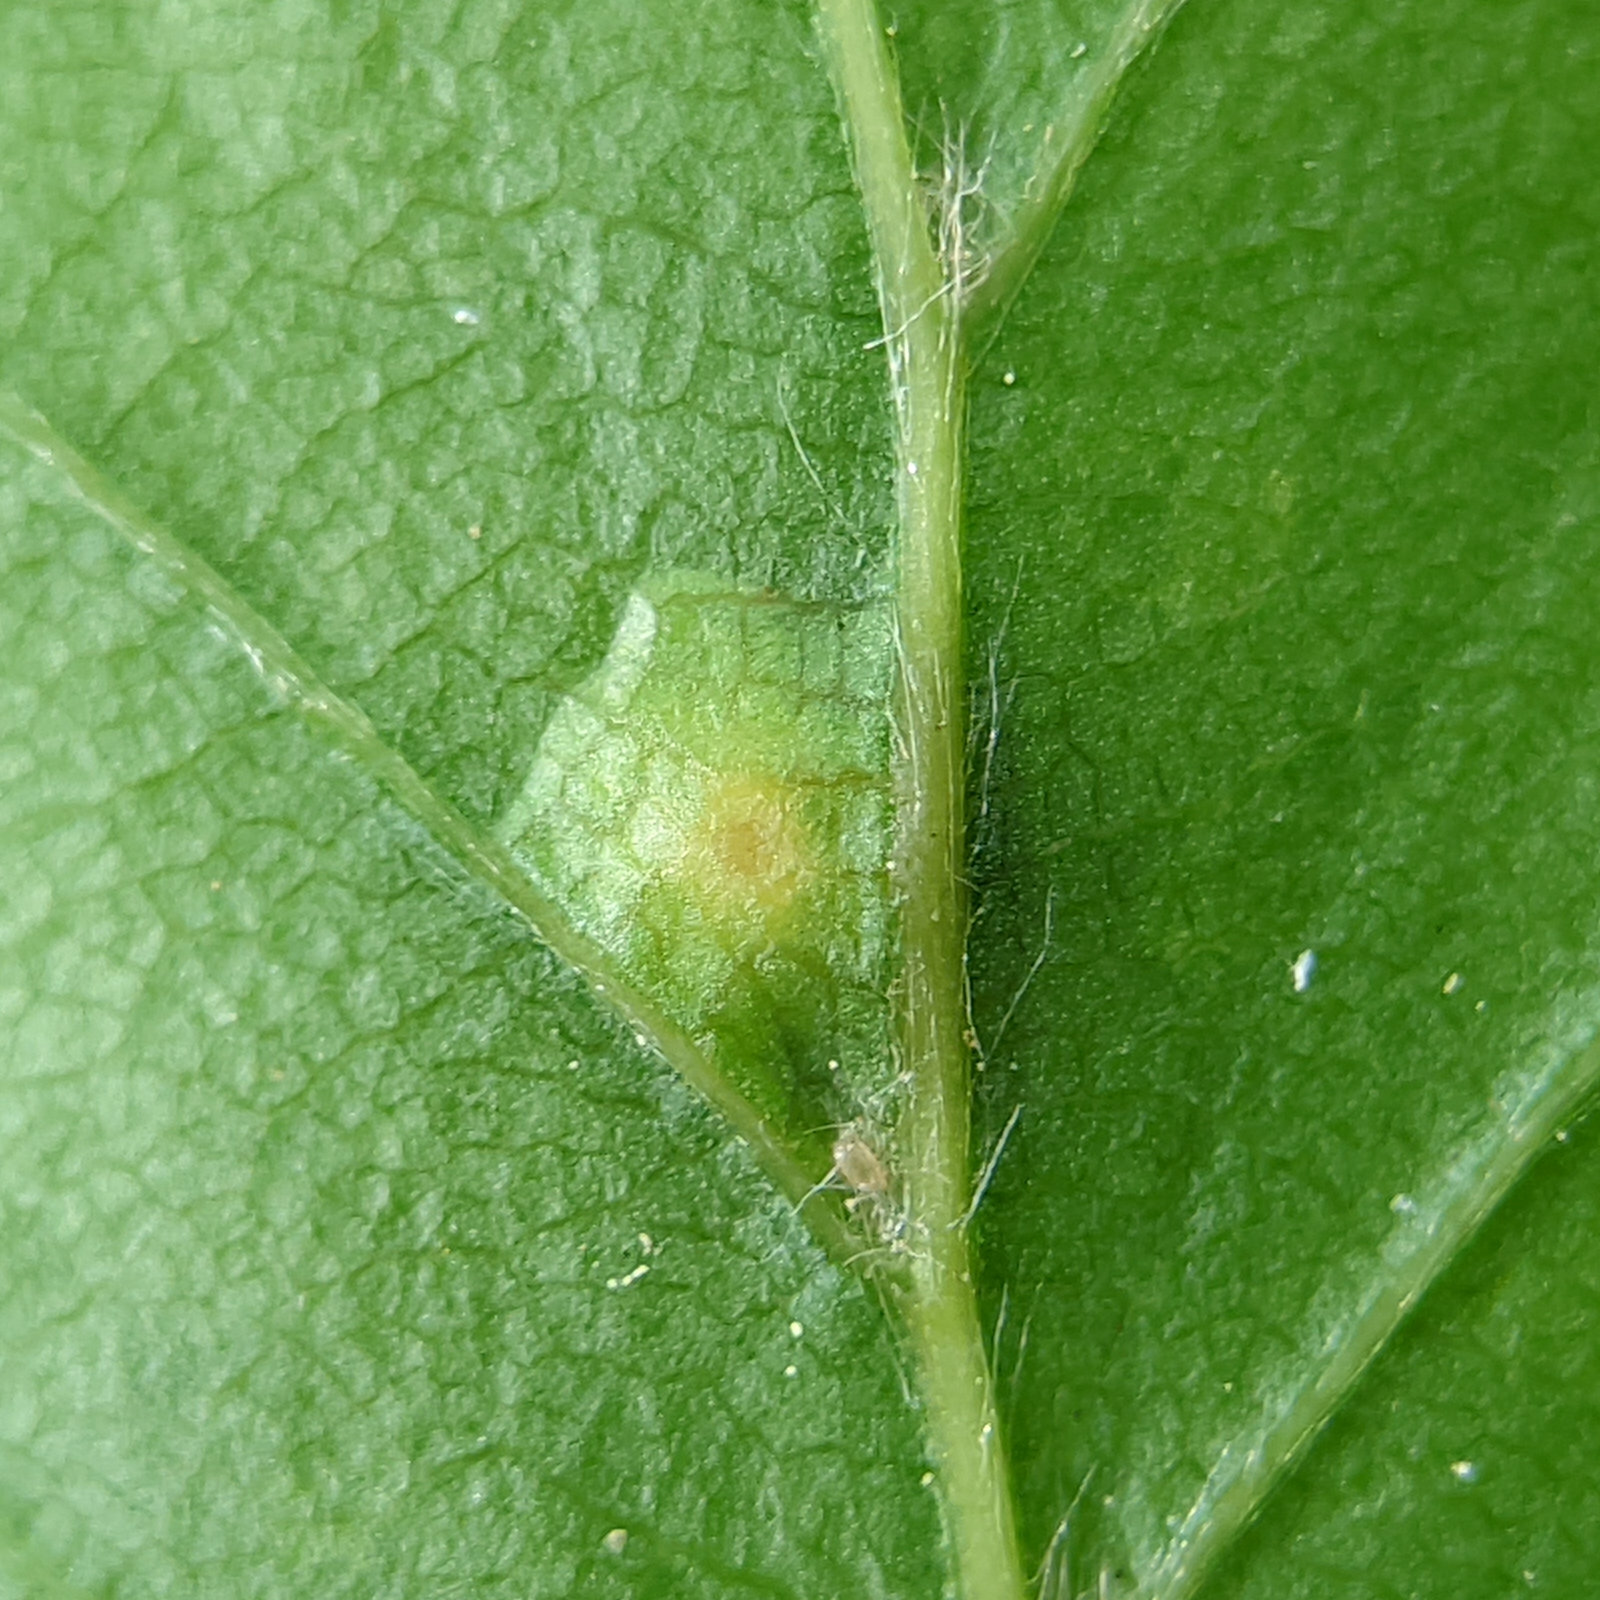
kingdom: Animalia
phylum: Arthropoda
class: Insecta
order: Diptera
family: Cecidomyiidae
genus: Hartigiola
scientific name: Hartigiola annulipes
